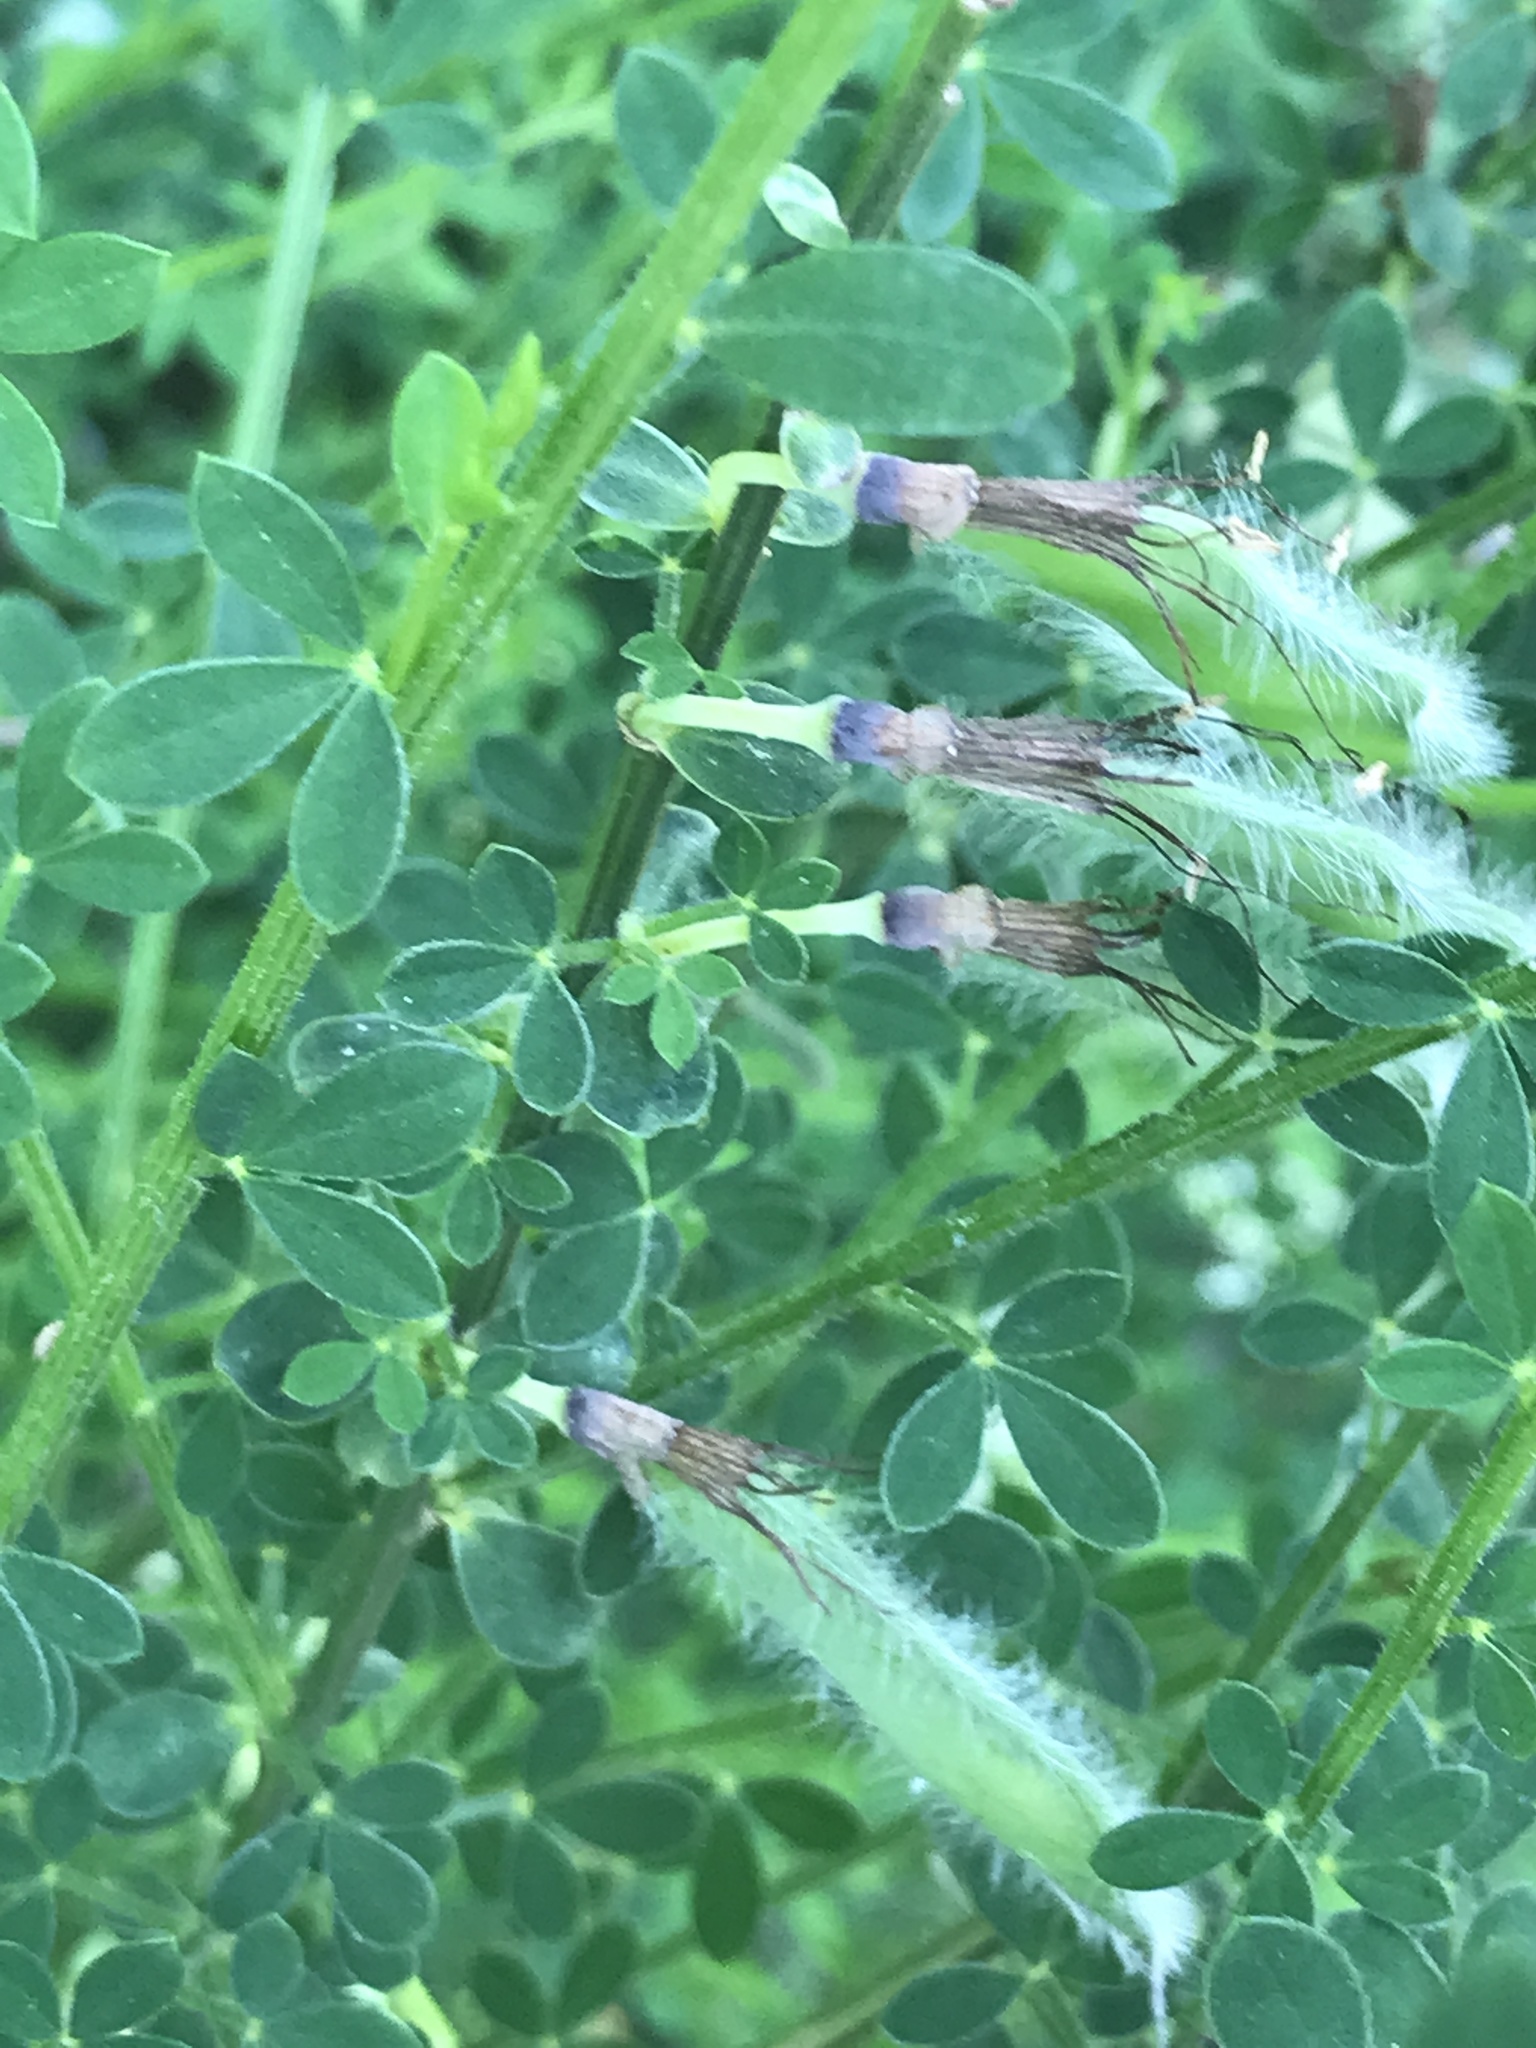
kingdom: Plantae
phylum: Tracheophyta
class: Magnoliopsida
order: Fabales
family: Fabaceae
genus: Cytisus
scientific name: Cytisus scoparius
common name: Scotch broom
